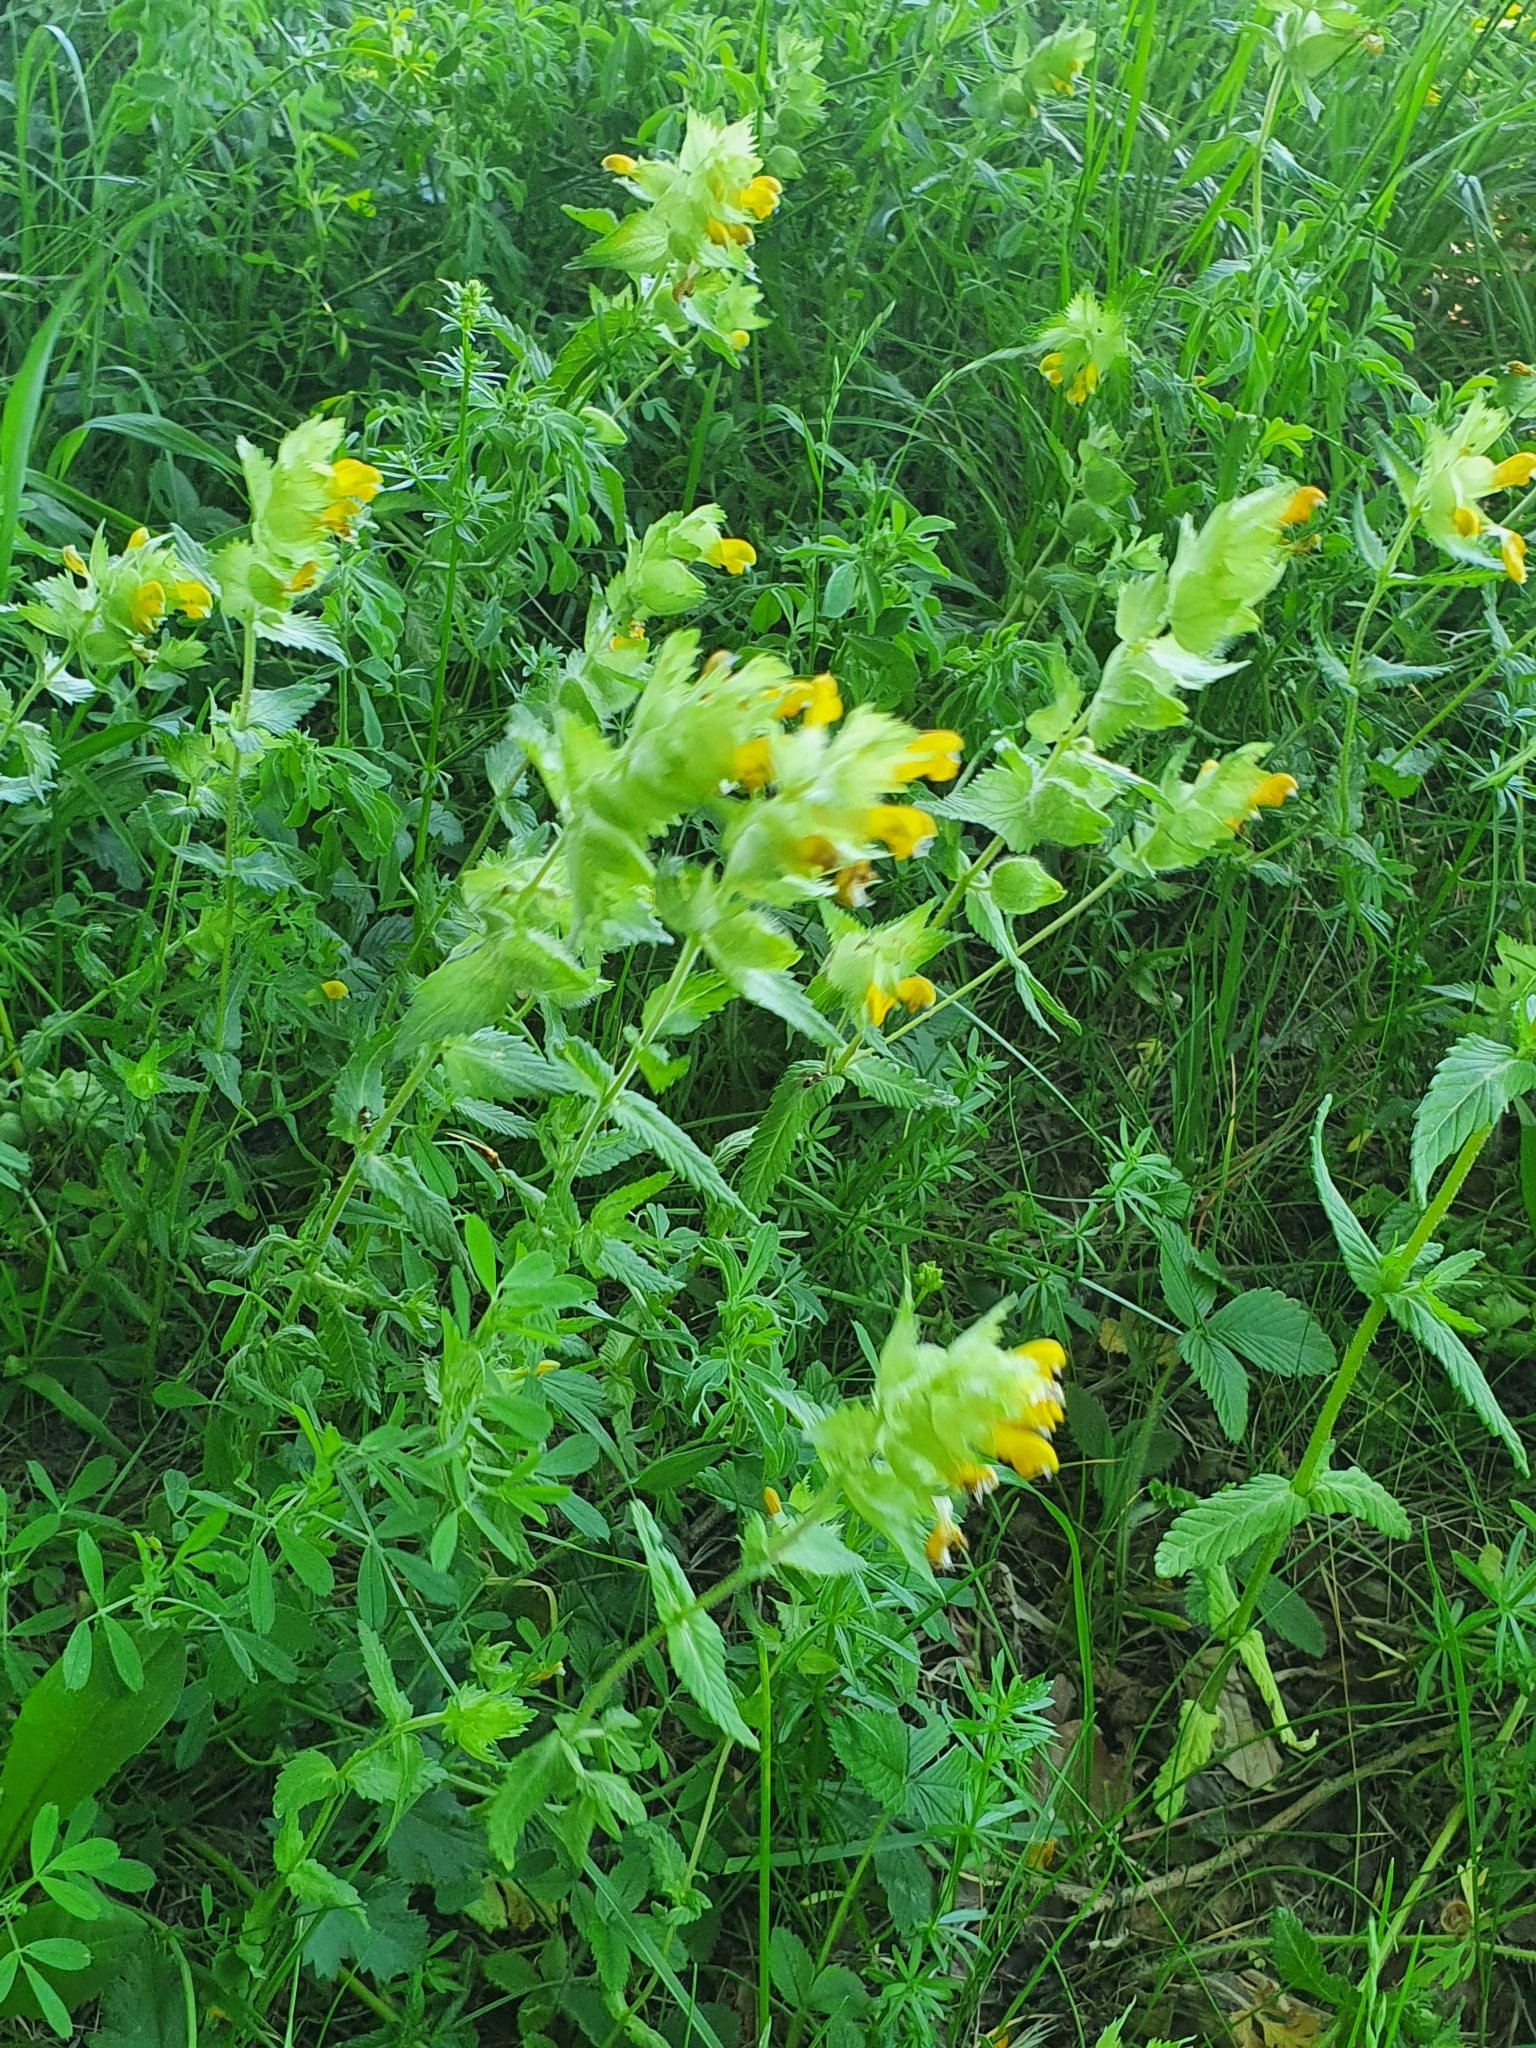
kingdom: Plantae
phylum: Tracheophyta
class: Magnoliopsida
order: Lamiales
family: Orobanchaceae
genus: Rhinanthus
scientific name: Rhinanthus alectorolophus
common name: Greater yellow-rattle
